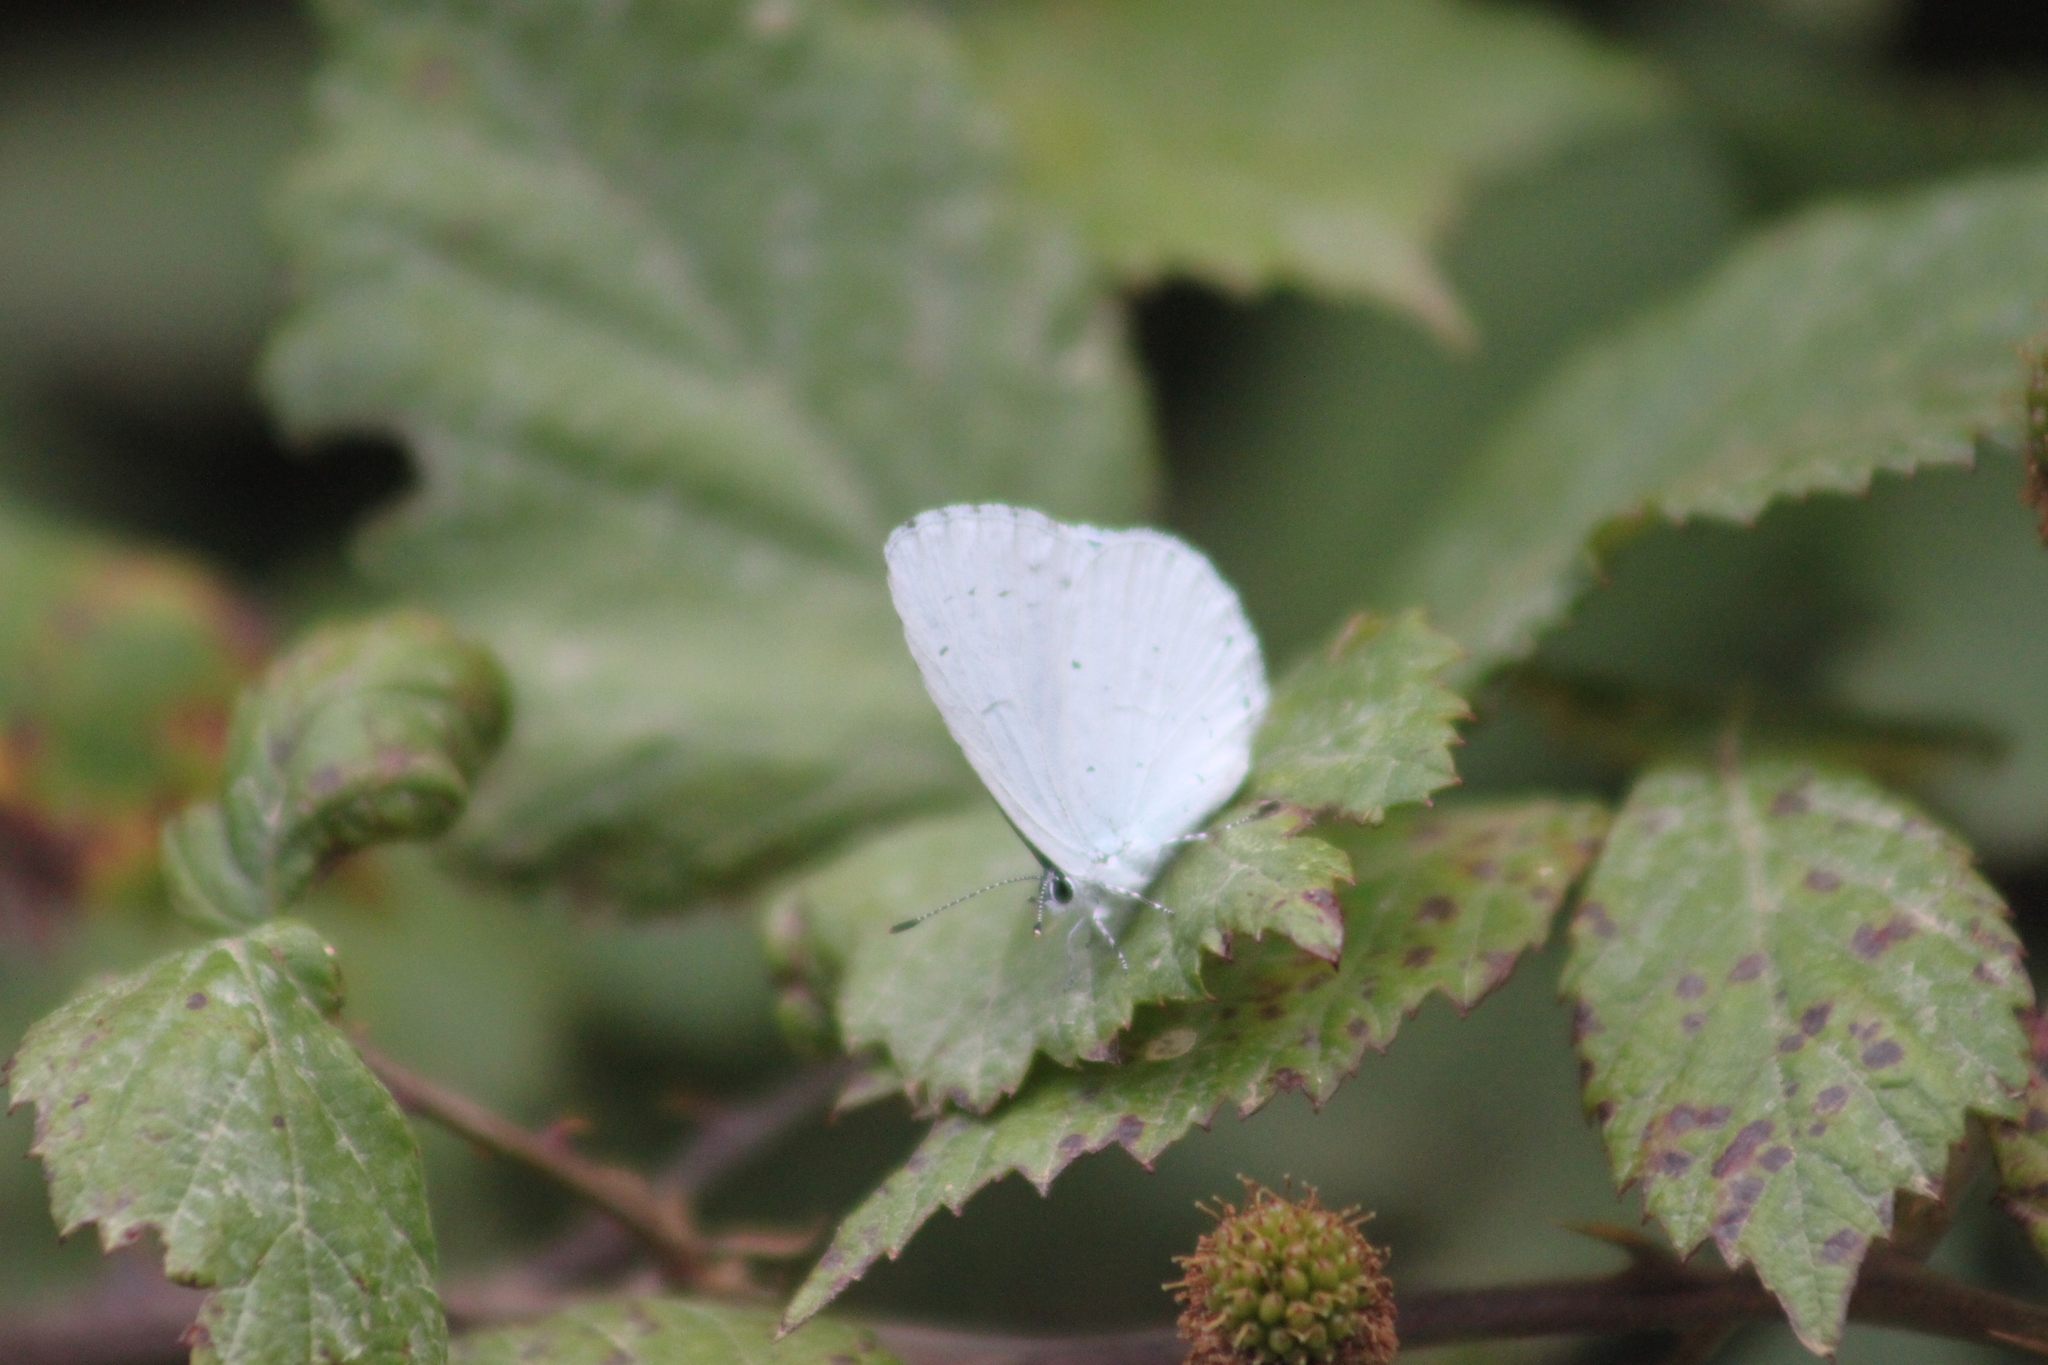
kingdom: Animalia
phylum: Arthropoda
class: Insecta
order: Lepidoptera
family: Lycaenidae
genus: Celastrina
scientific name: Celastrina argiolus
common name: Holly blue
